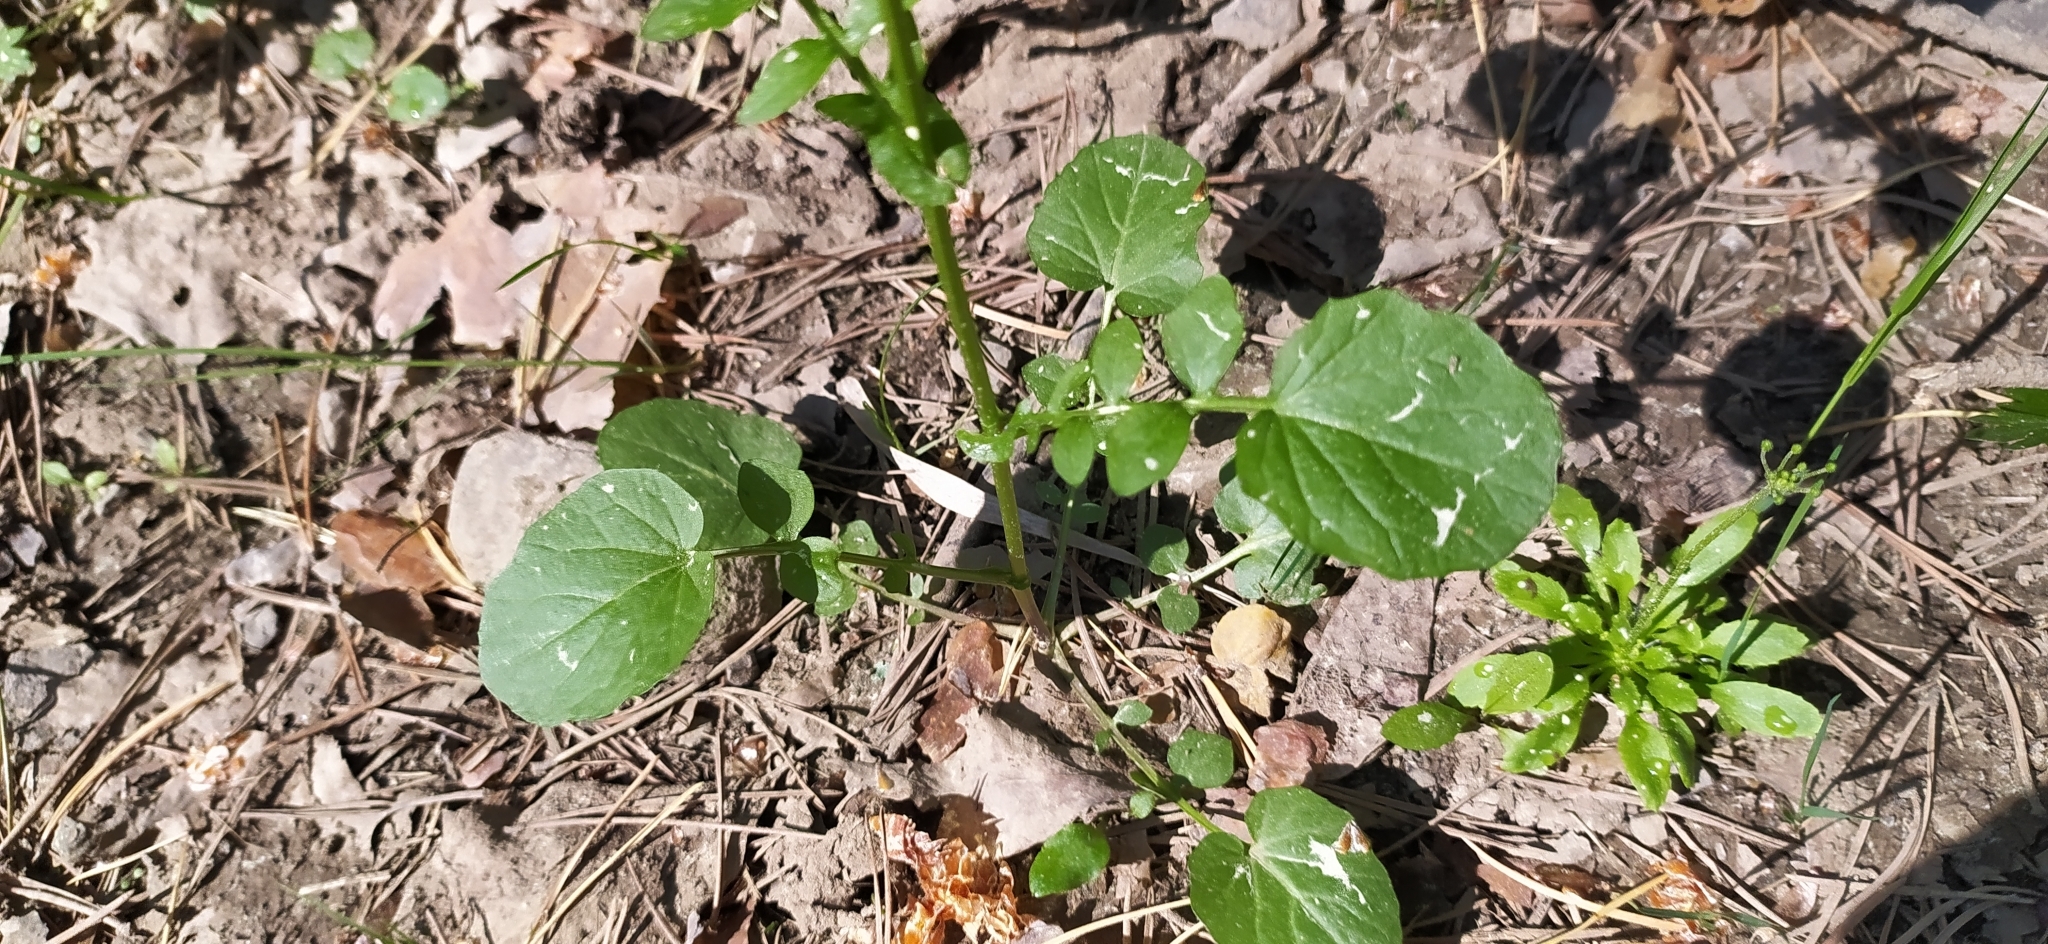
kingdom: Plantae
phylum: Tracheophyta
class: Magnoliopsida
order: Brassicales
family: Brassicaceae
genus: Barbarea
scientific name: Barbarea vulgaris
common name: Cressy-greens
